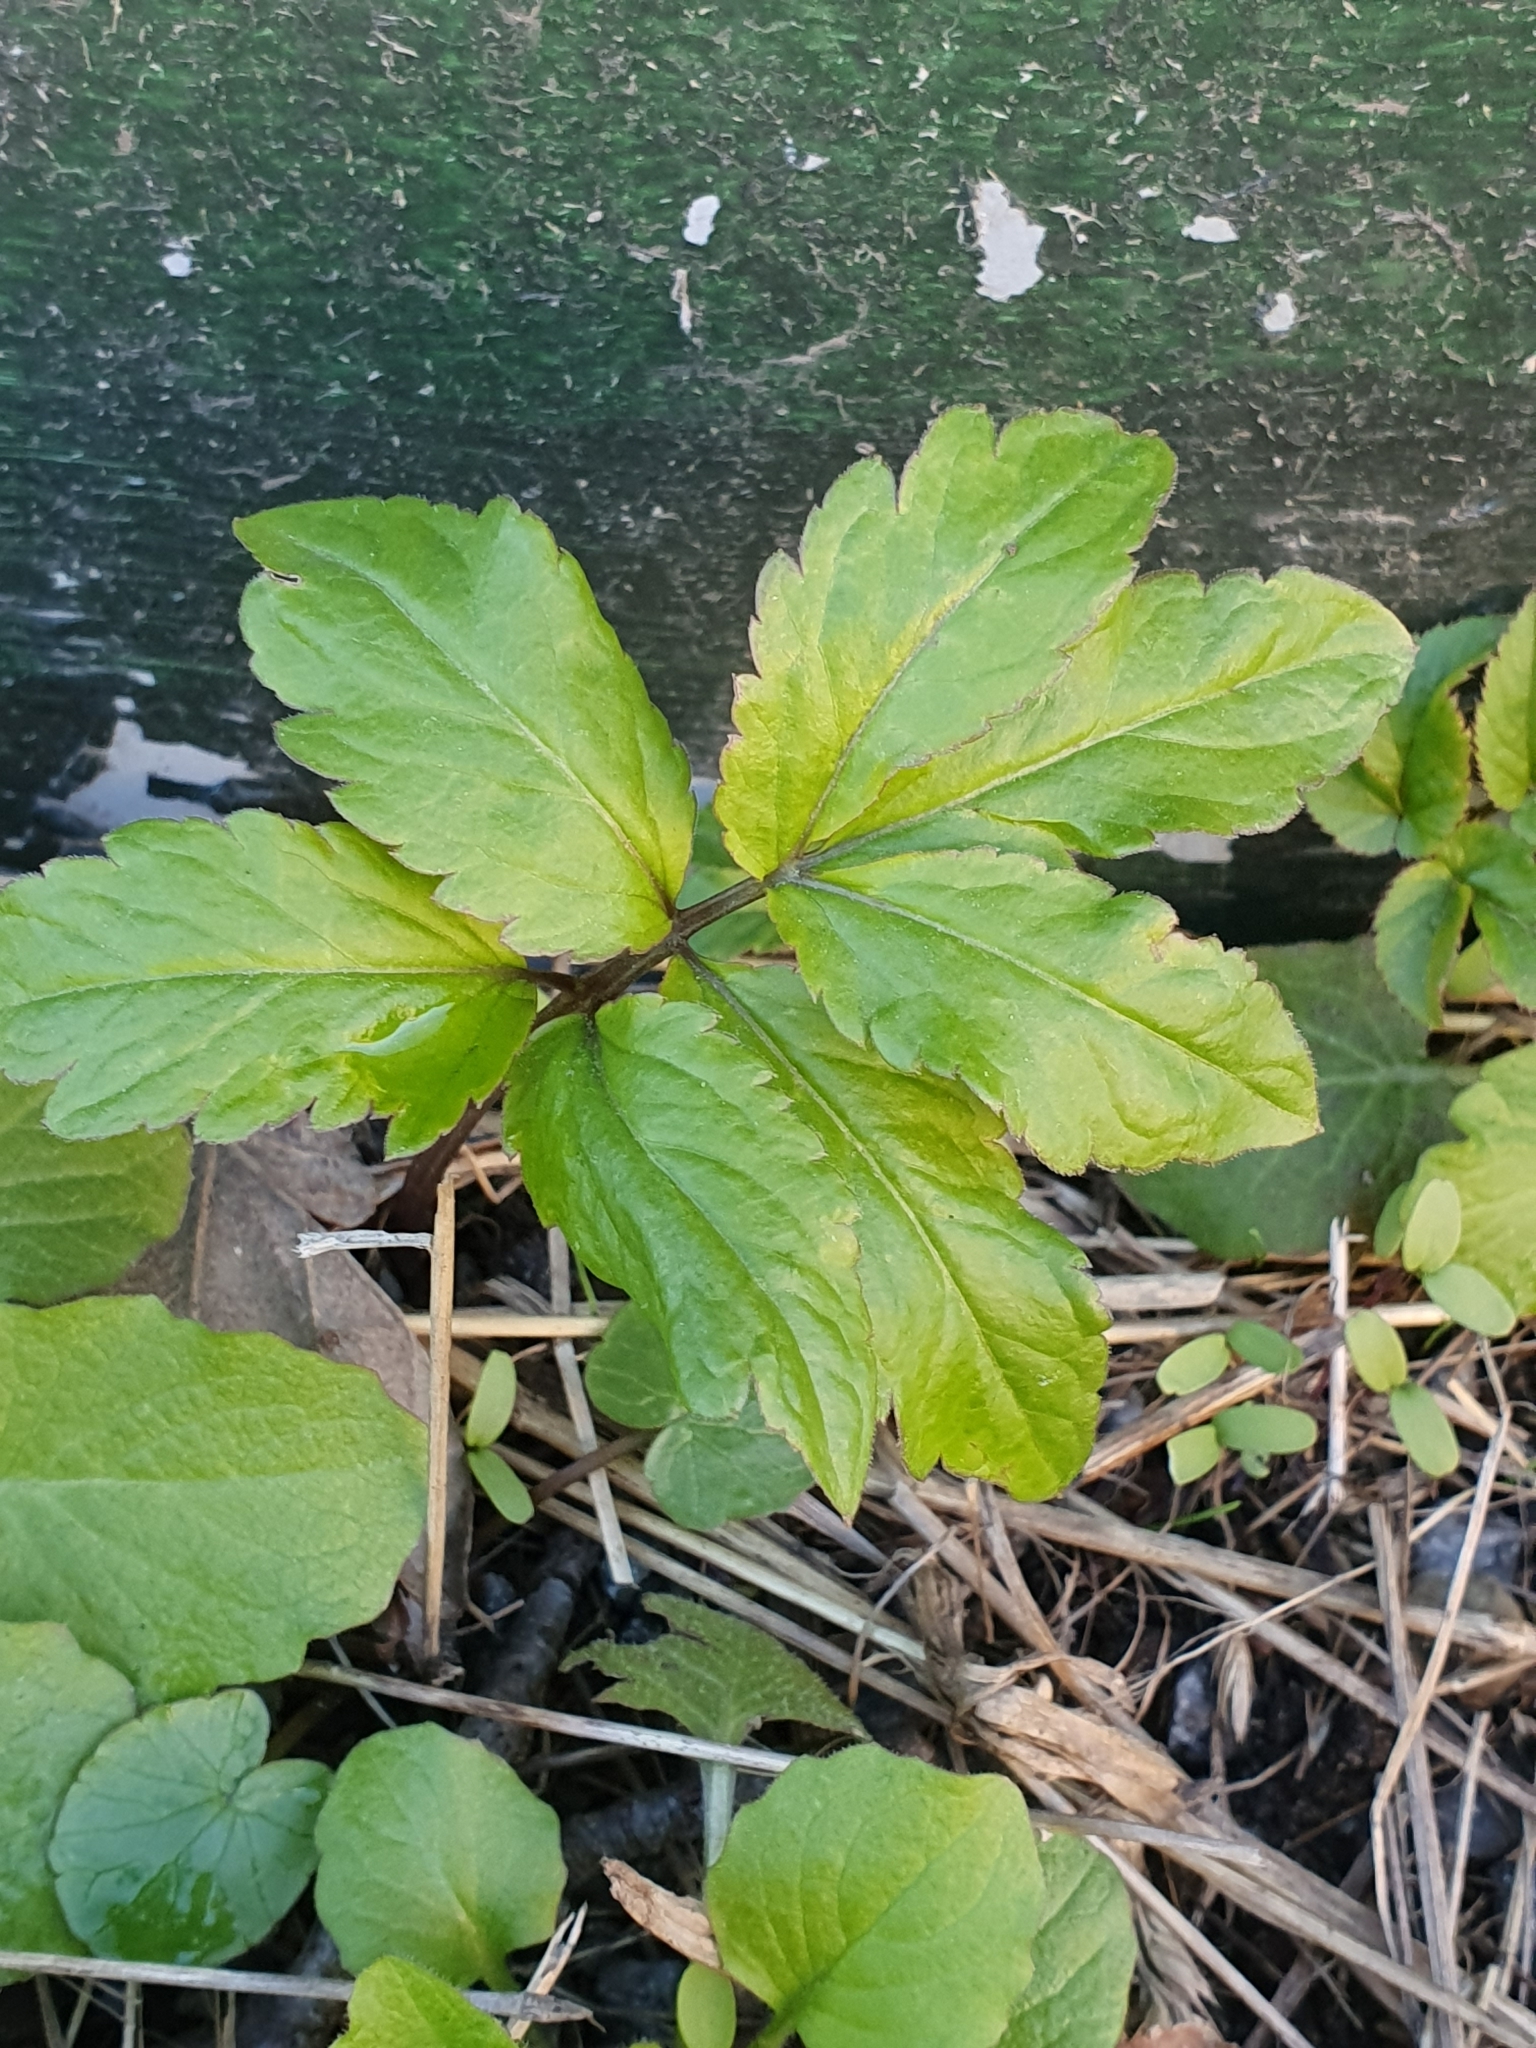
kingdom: Plantae
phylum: Tracheophyta
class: Magnoliopsida
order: Brassicales
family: Brassicaceae
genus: Cardamine
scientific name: Cardamine bulbifera
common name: Coralroot bittercress
